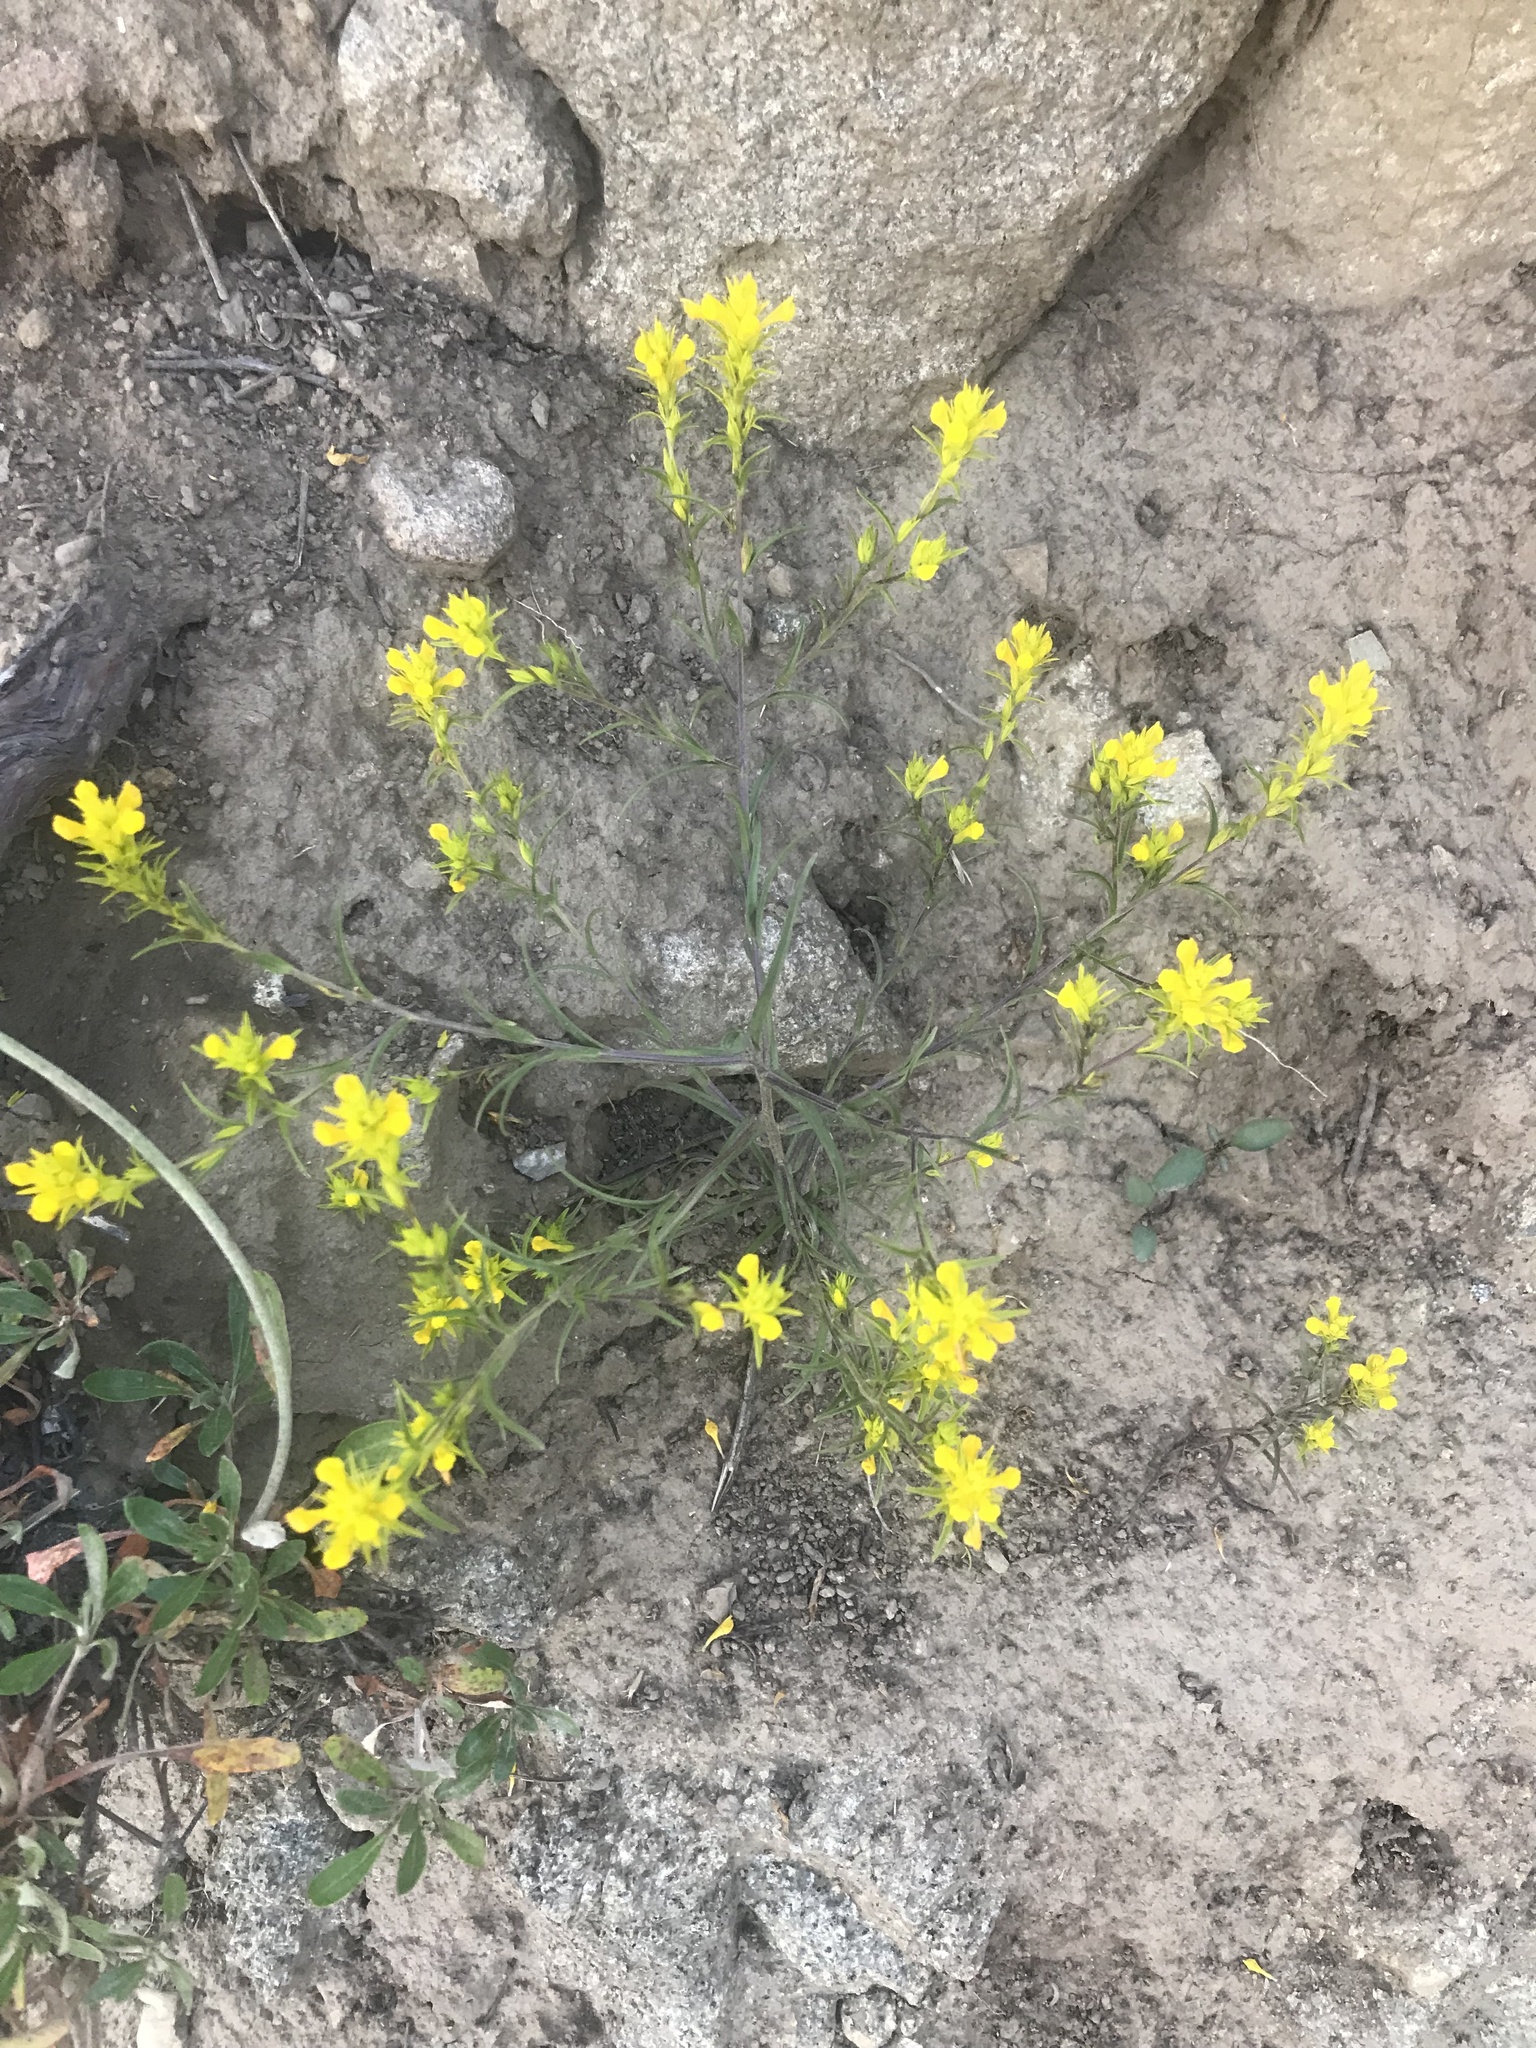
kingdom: Plantae
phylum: Tracheophyta
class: Magnoliopsida
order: Lamiales
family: Orobanchaceae
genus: Orthocarpus
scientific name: Orthocarpus tolmiei
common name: Tolmie's owl-clover
